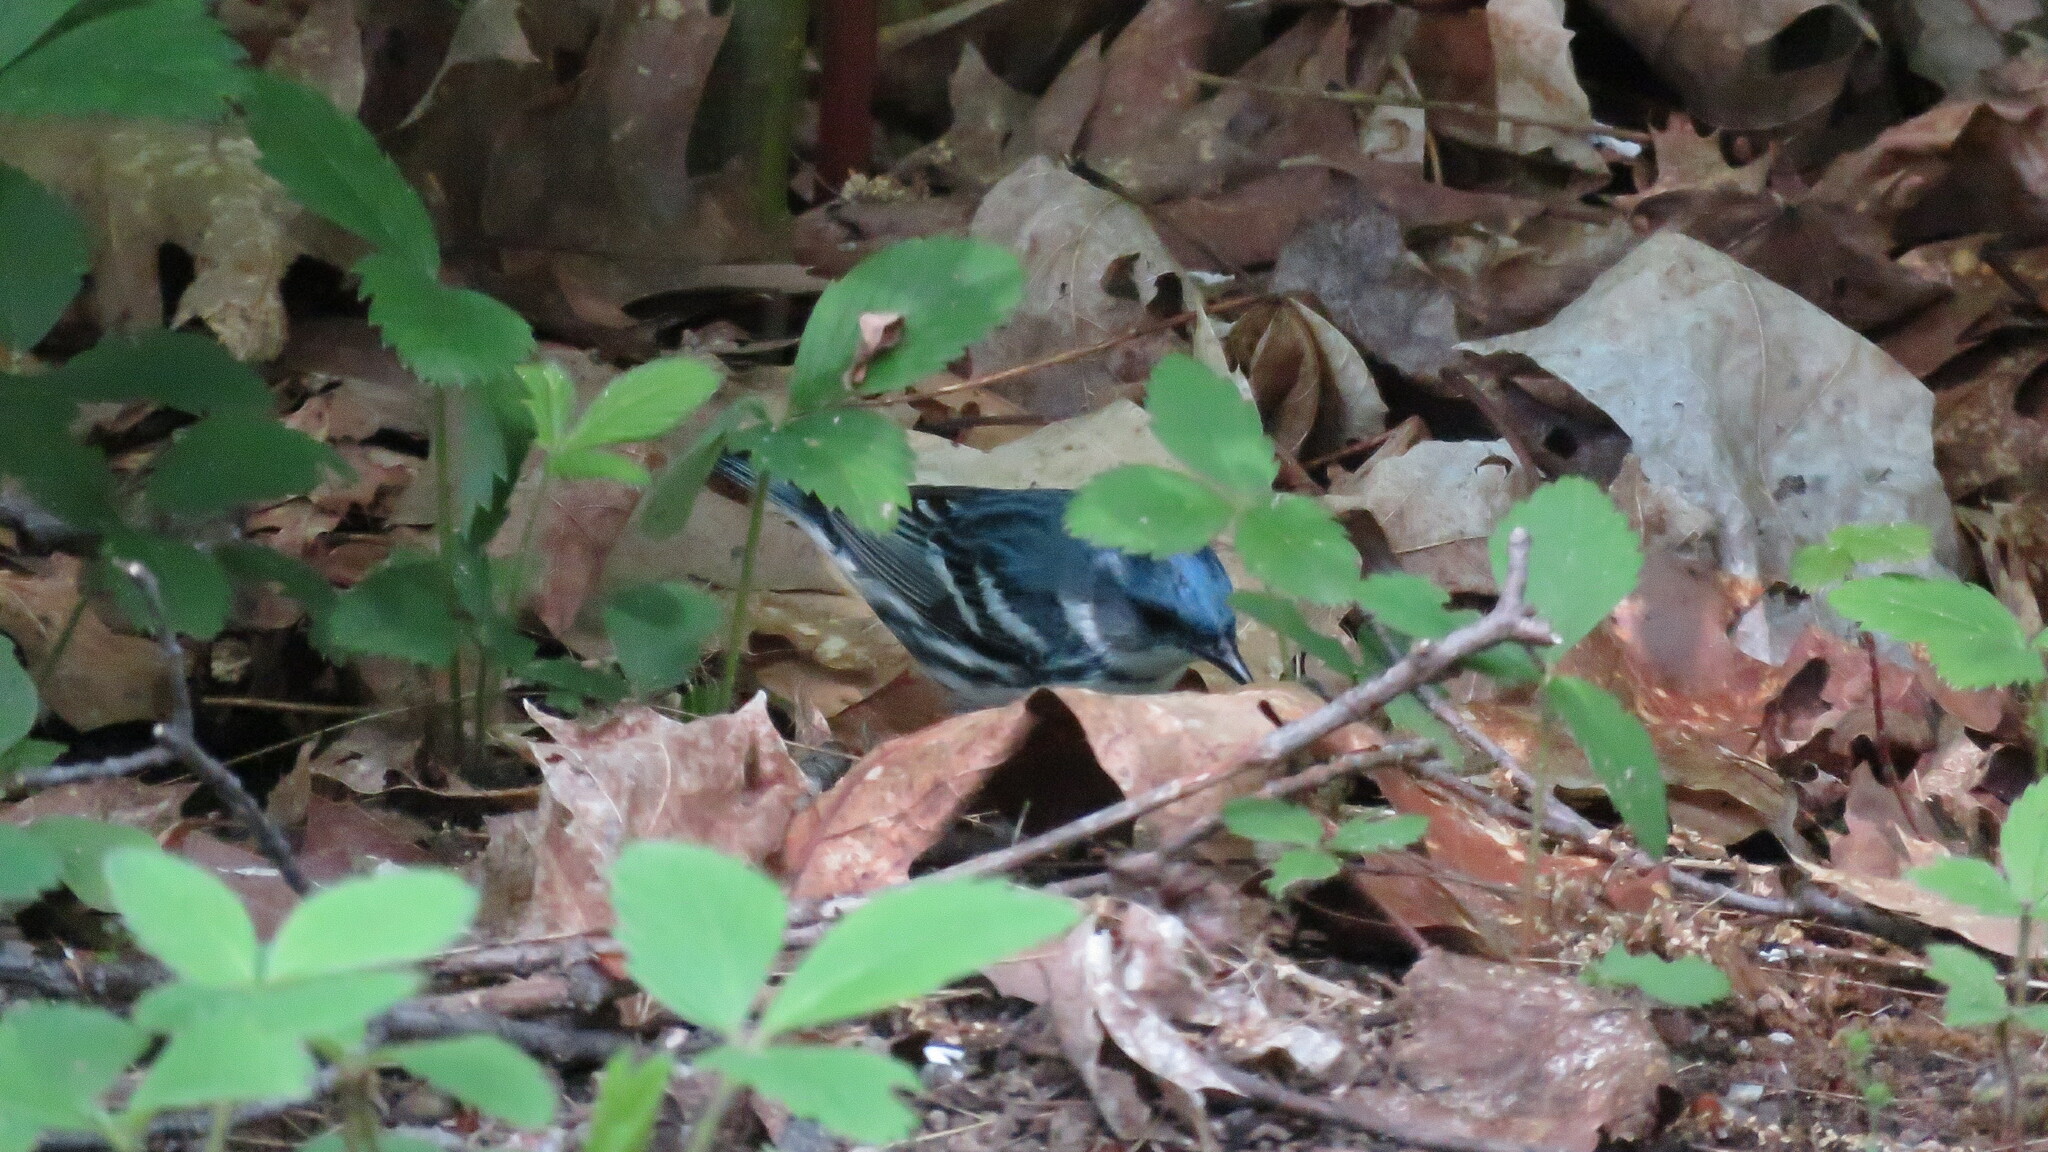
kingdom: Animalia
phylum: Chordata
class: Aves
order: Passeriformes
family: Parulidae
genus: Setophaga
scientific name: Setophaga cerulea
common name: Cerulean warbler
